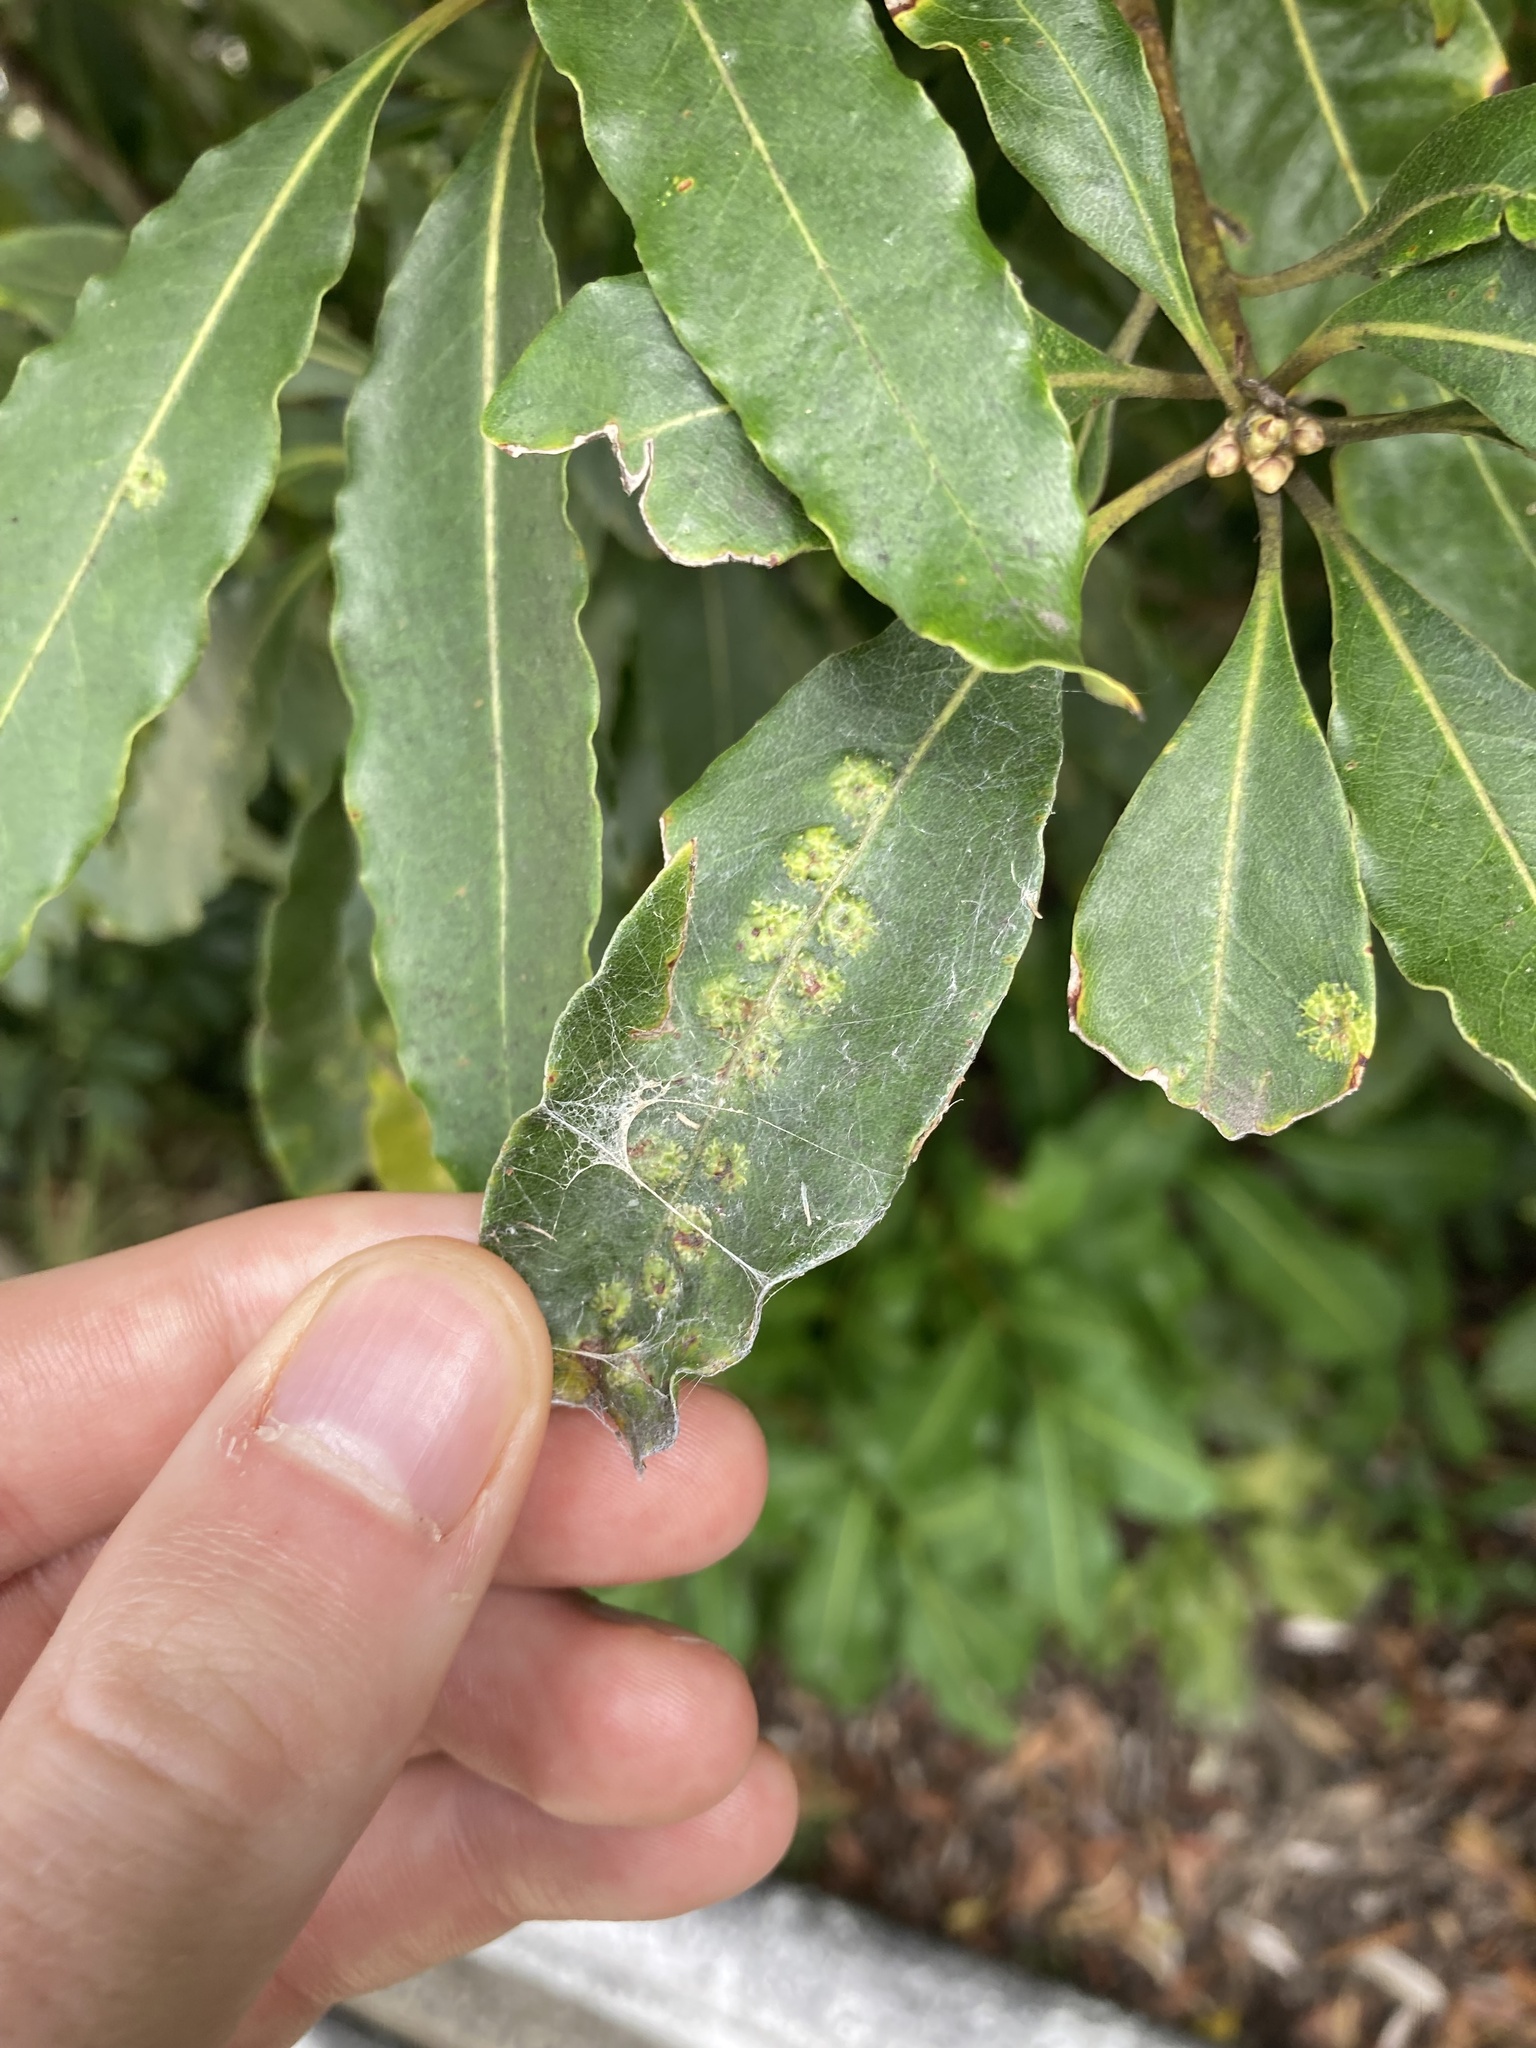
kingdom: Animalia
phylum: Arthropoda
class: Insecta
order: Diptera
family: Agromyzidae
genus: Phytoliriomyza
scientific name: Phytoliriomyza pittosporophylli
